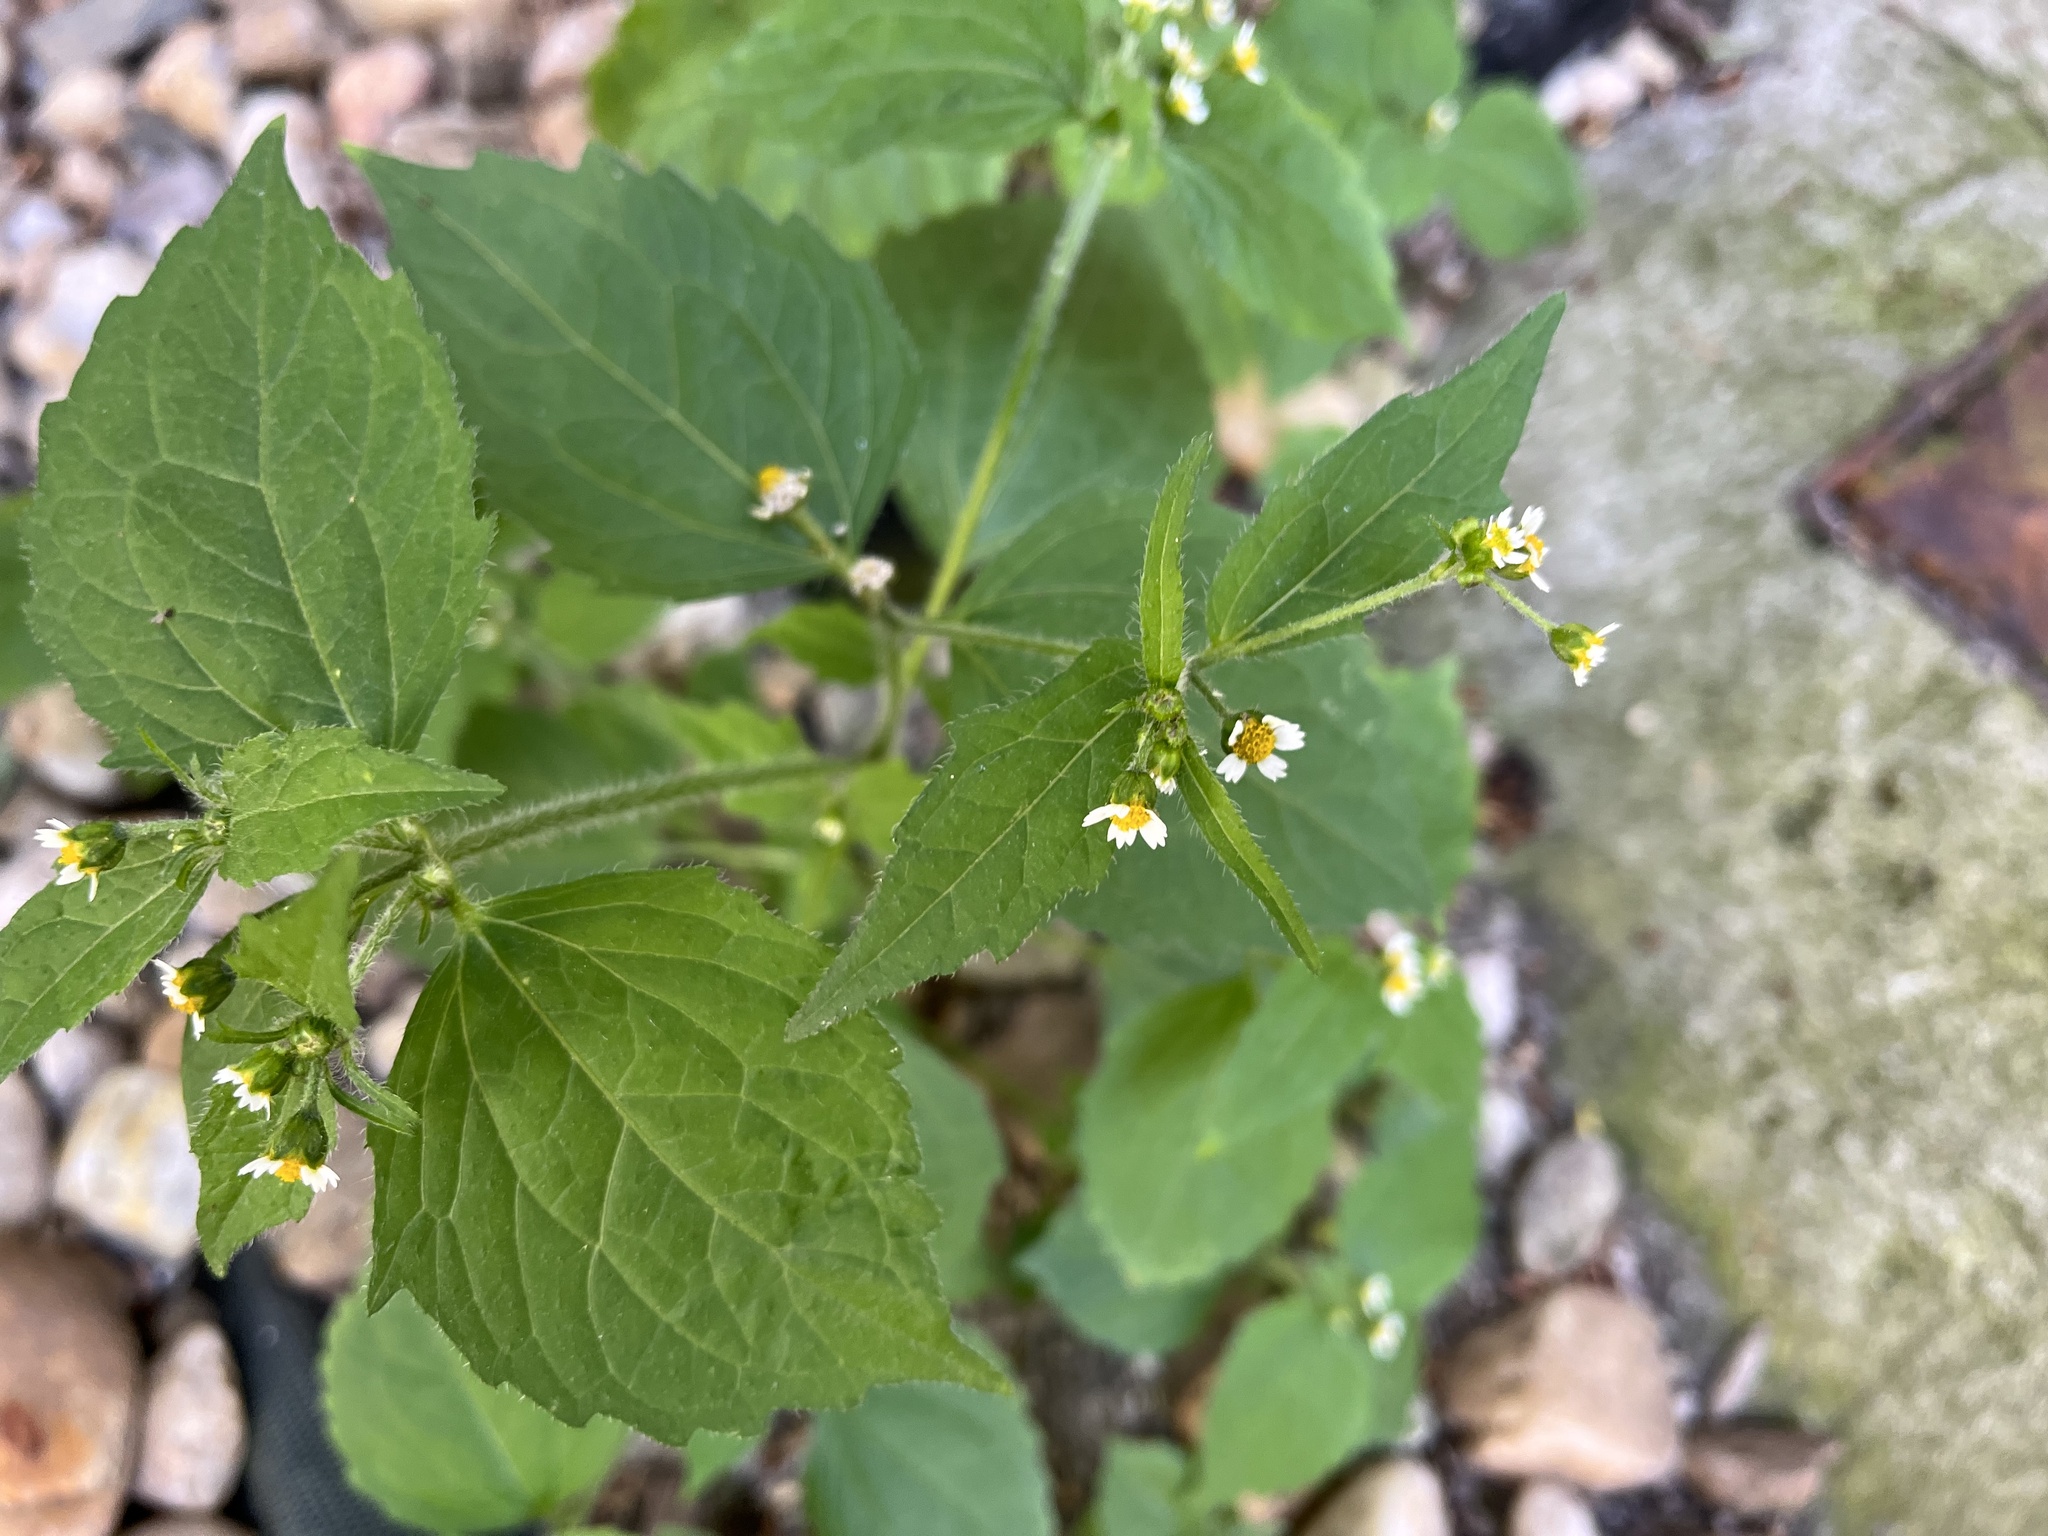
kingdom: Plantae
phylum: Tracheophyta
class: Magnoliopsida
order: Asterales
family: Asteraceae
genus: Galinsoga
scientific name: Galinsoga quadriradiata
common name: Shaggy soldier
